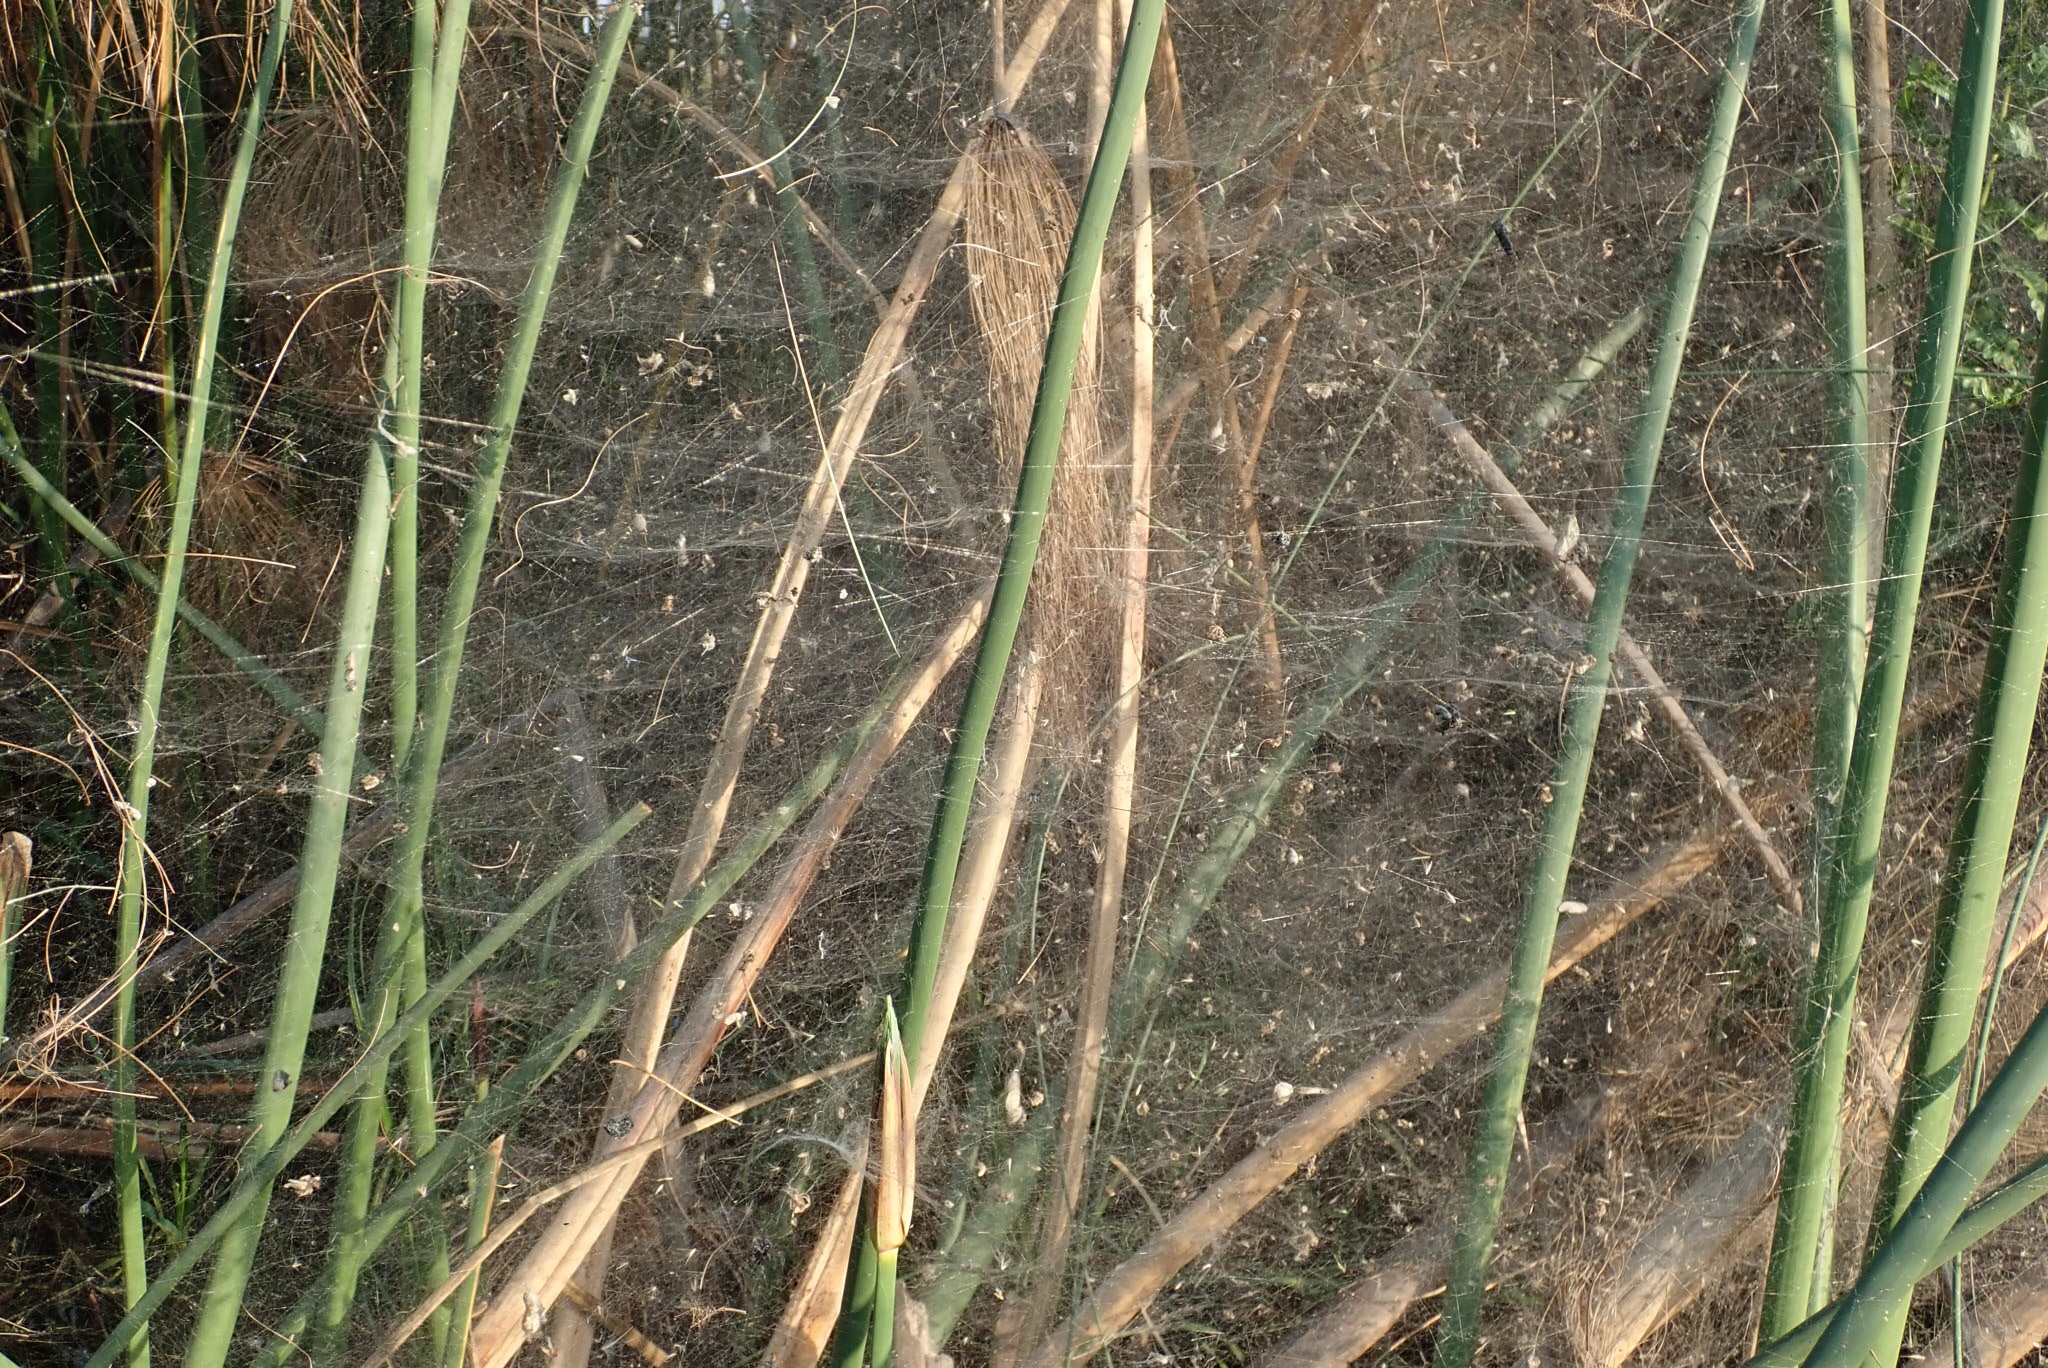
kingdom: Animalia
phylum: Arthropoda
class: Arachnida
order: Araneae
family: Araneidae
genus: Cyrtophora
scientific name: Cyrtophora citricola
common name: Orb weavers
